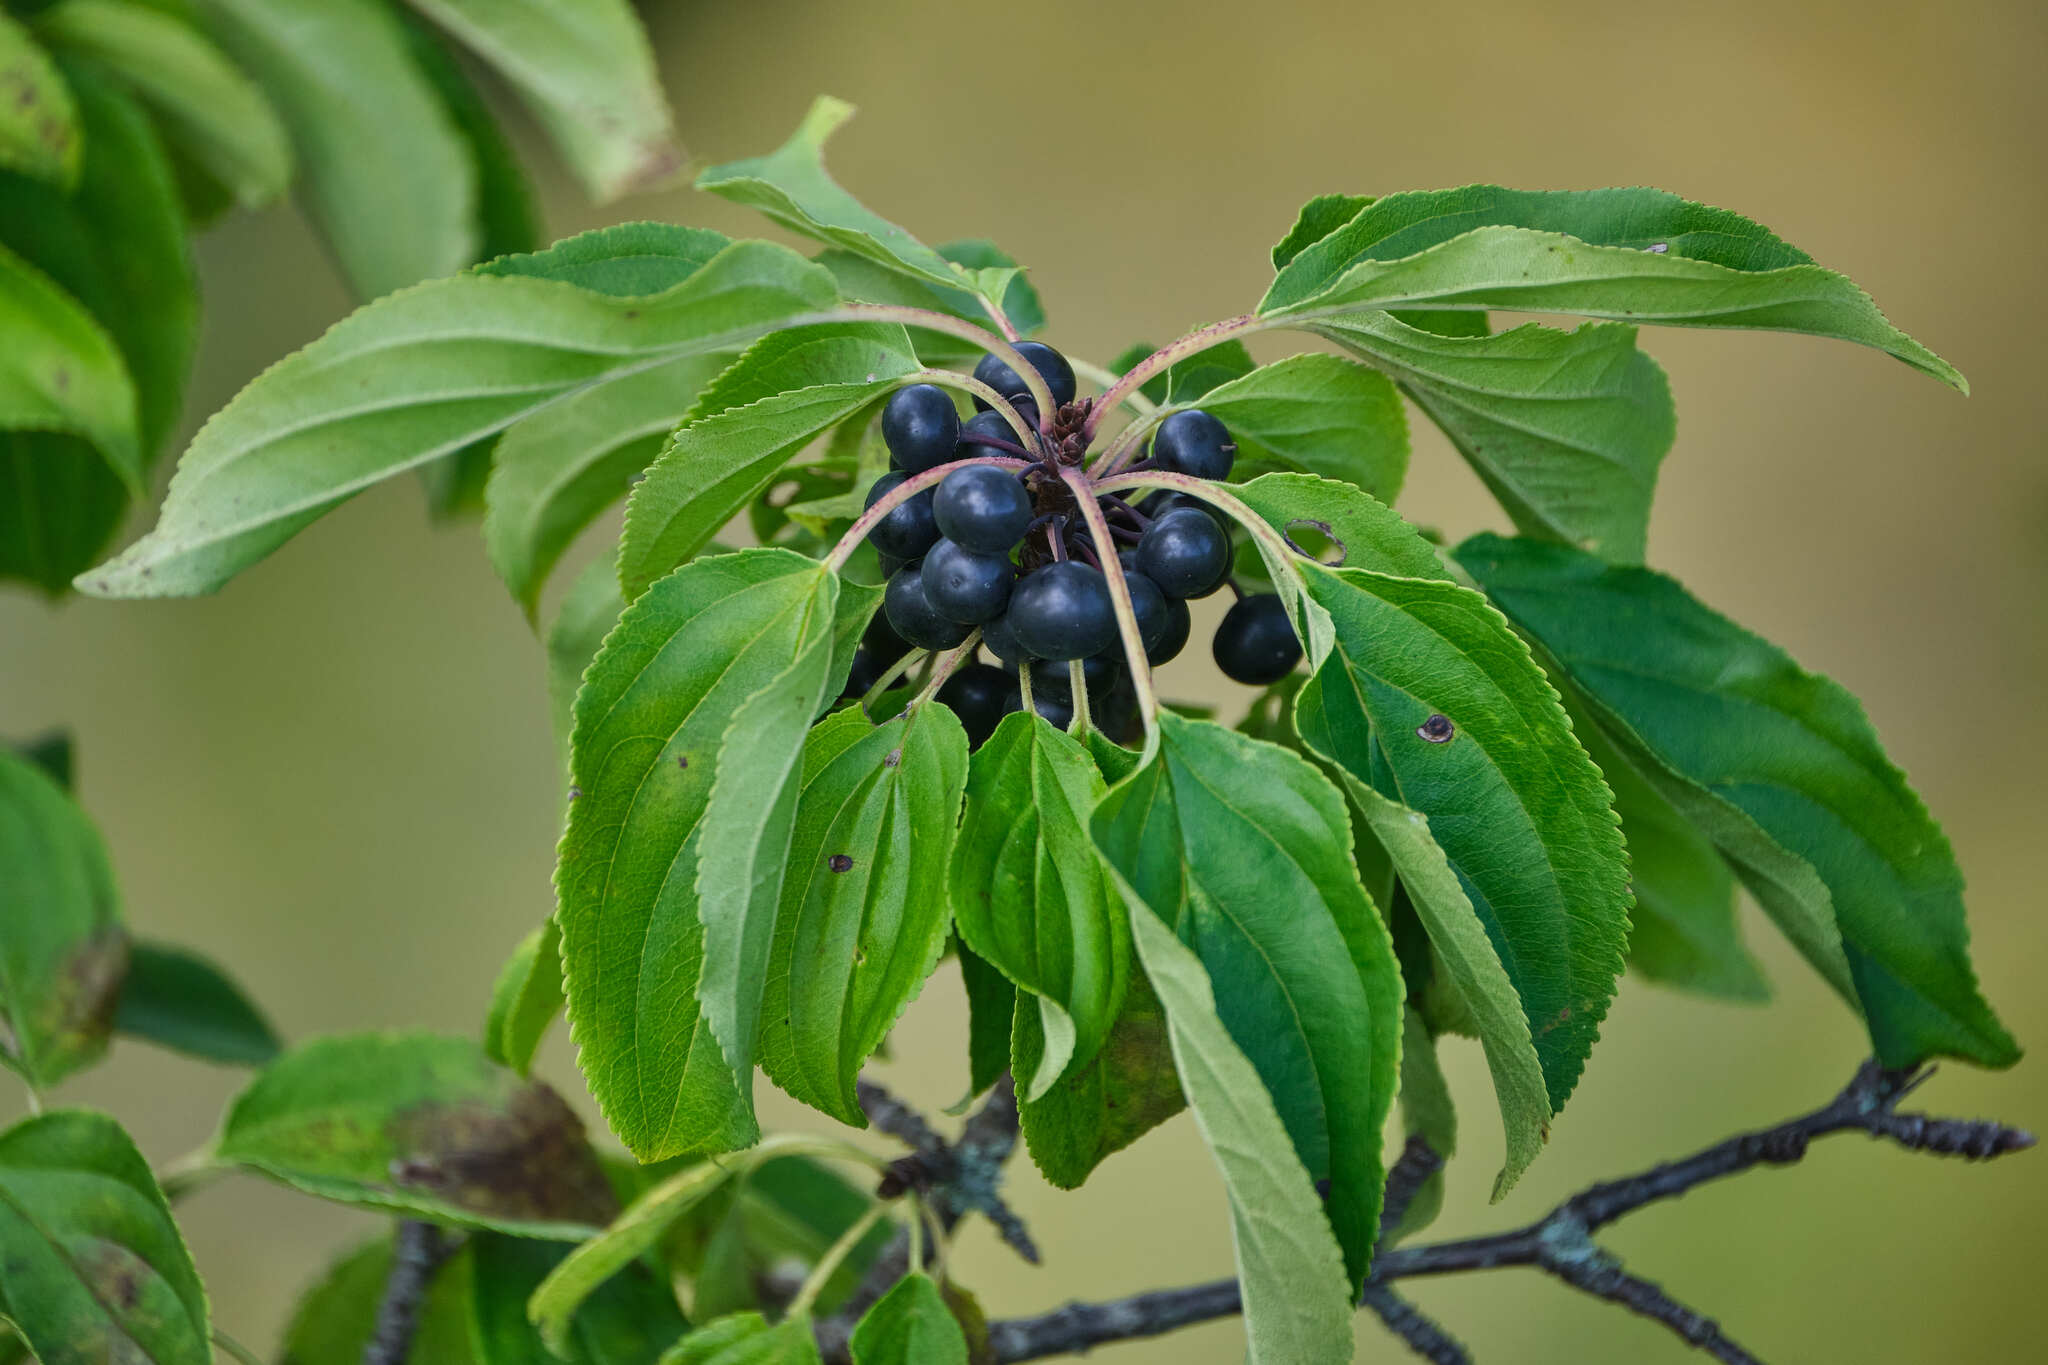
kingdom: Plantae
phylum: Tracheophyta
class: Magnoliopsida
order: Rosales
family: Rhamnaceae
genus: Rhamnus
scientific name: Rhamnus cathartica
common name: Common buckthorn
